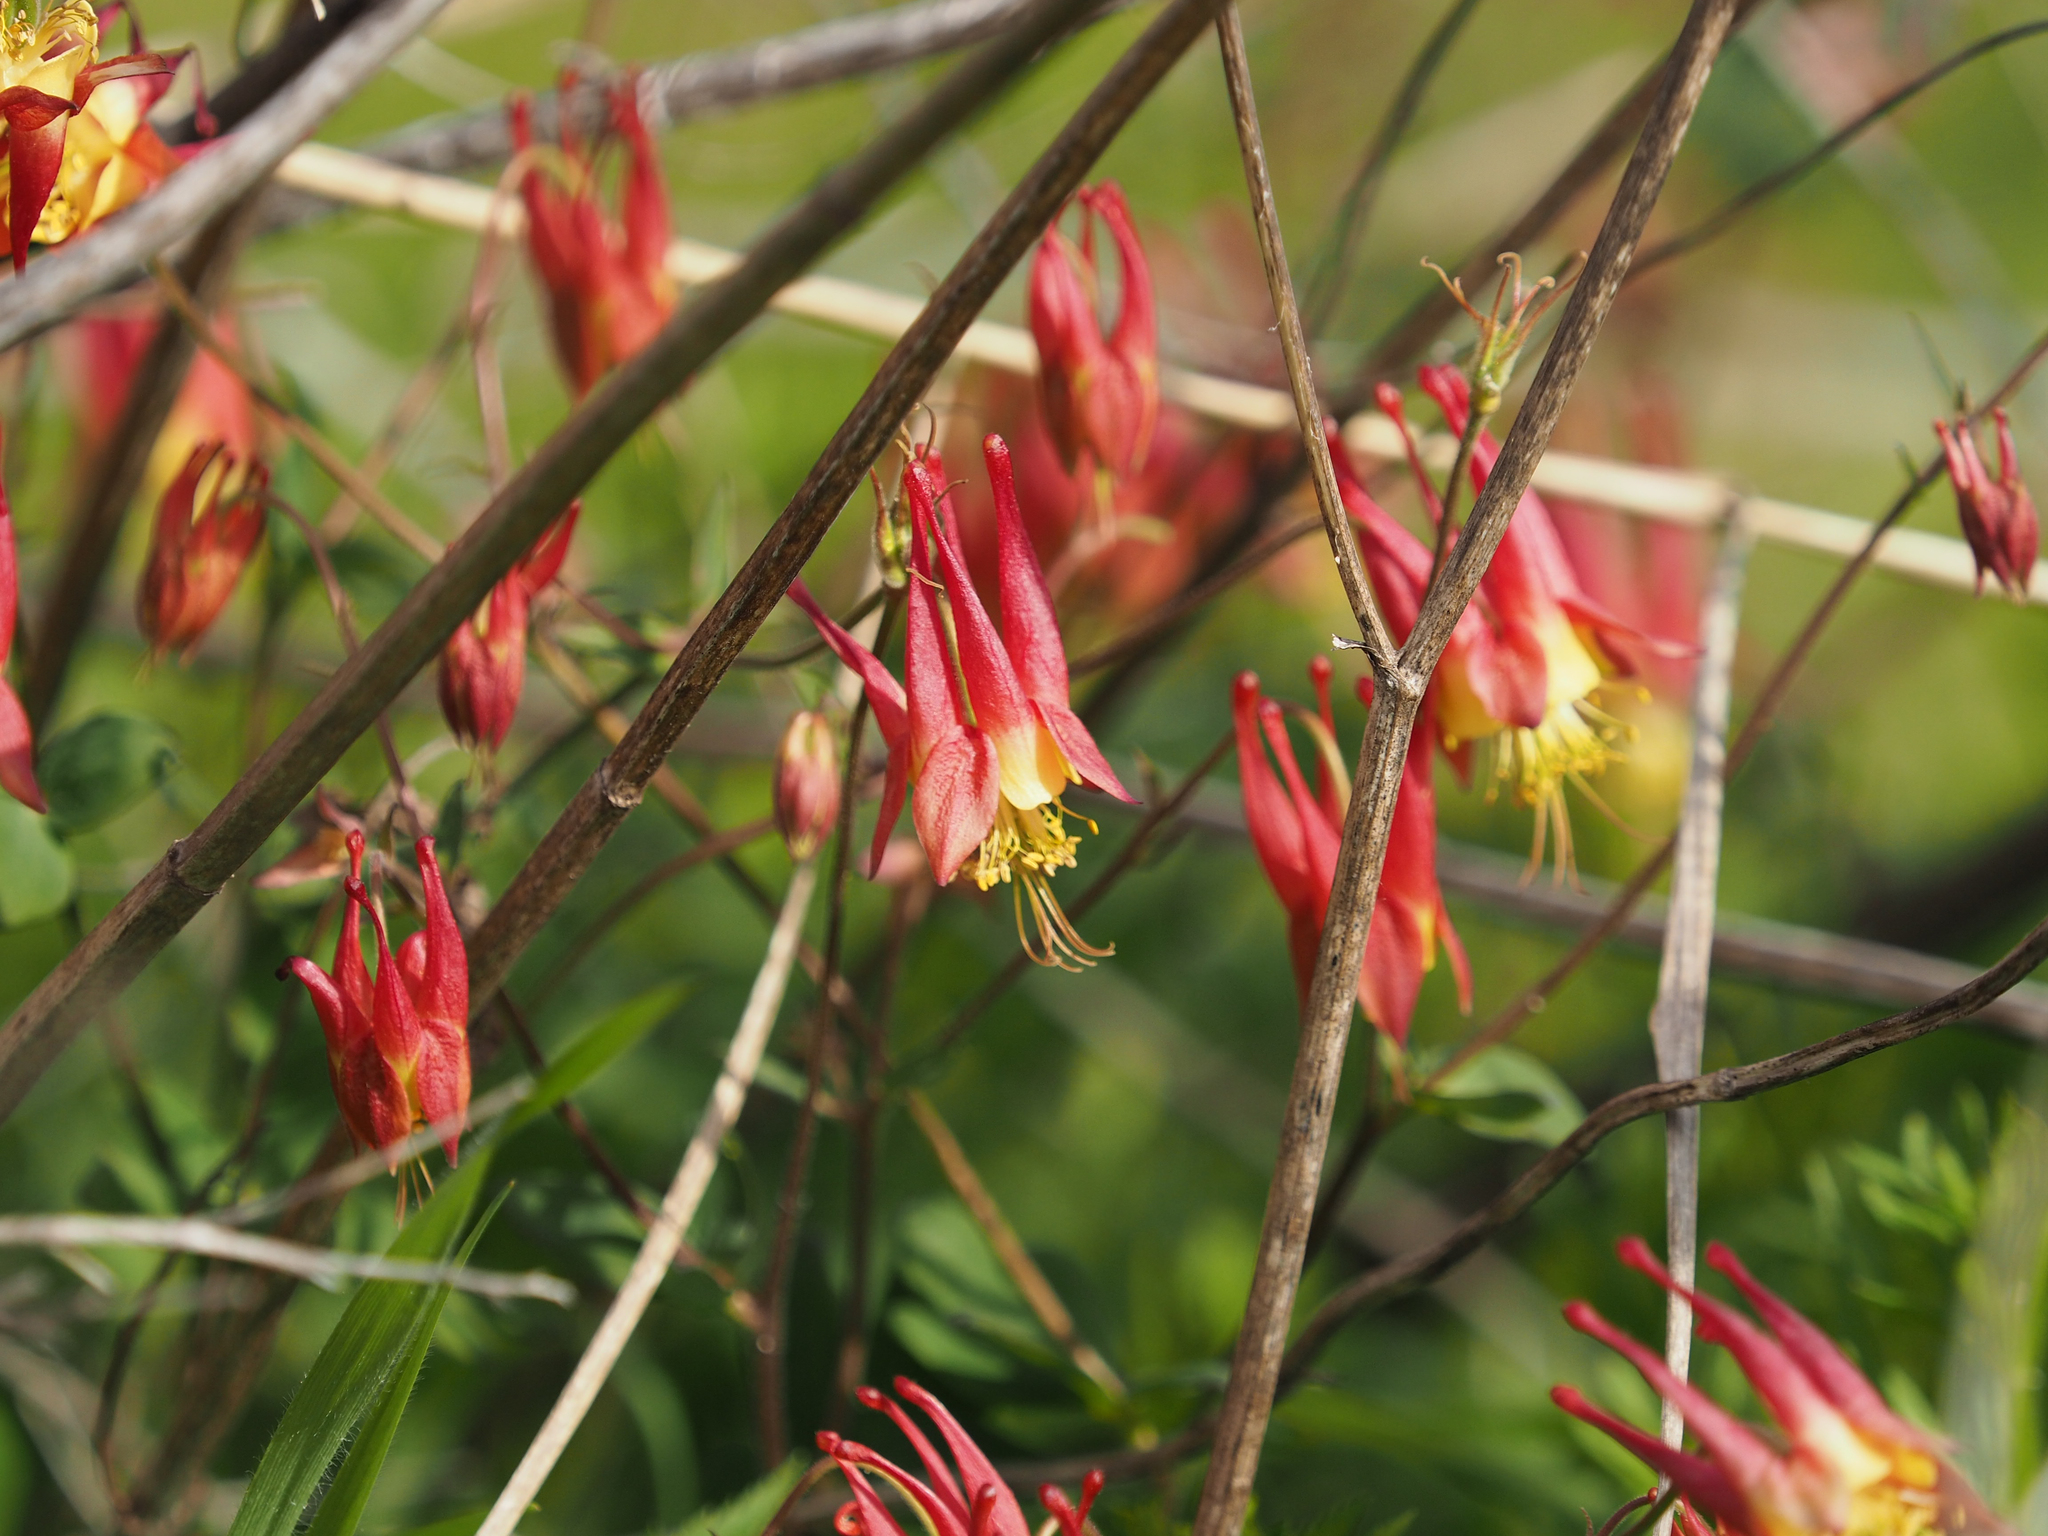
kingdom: Plantae
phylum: Tracheophyta
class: Magnoliopsida
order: Ranunculales
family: Ranunculaceae
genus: Aquilegia
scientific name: Aquilegia canadensis
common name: American columbine
